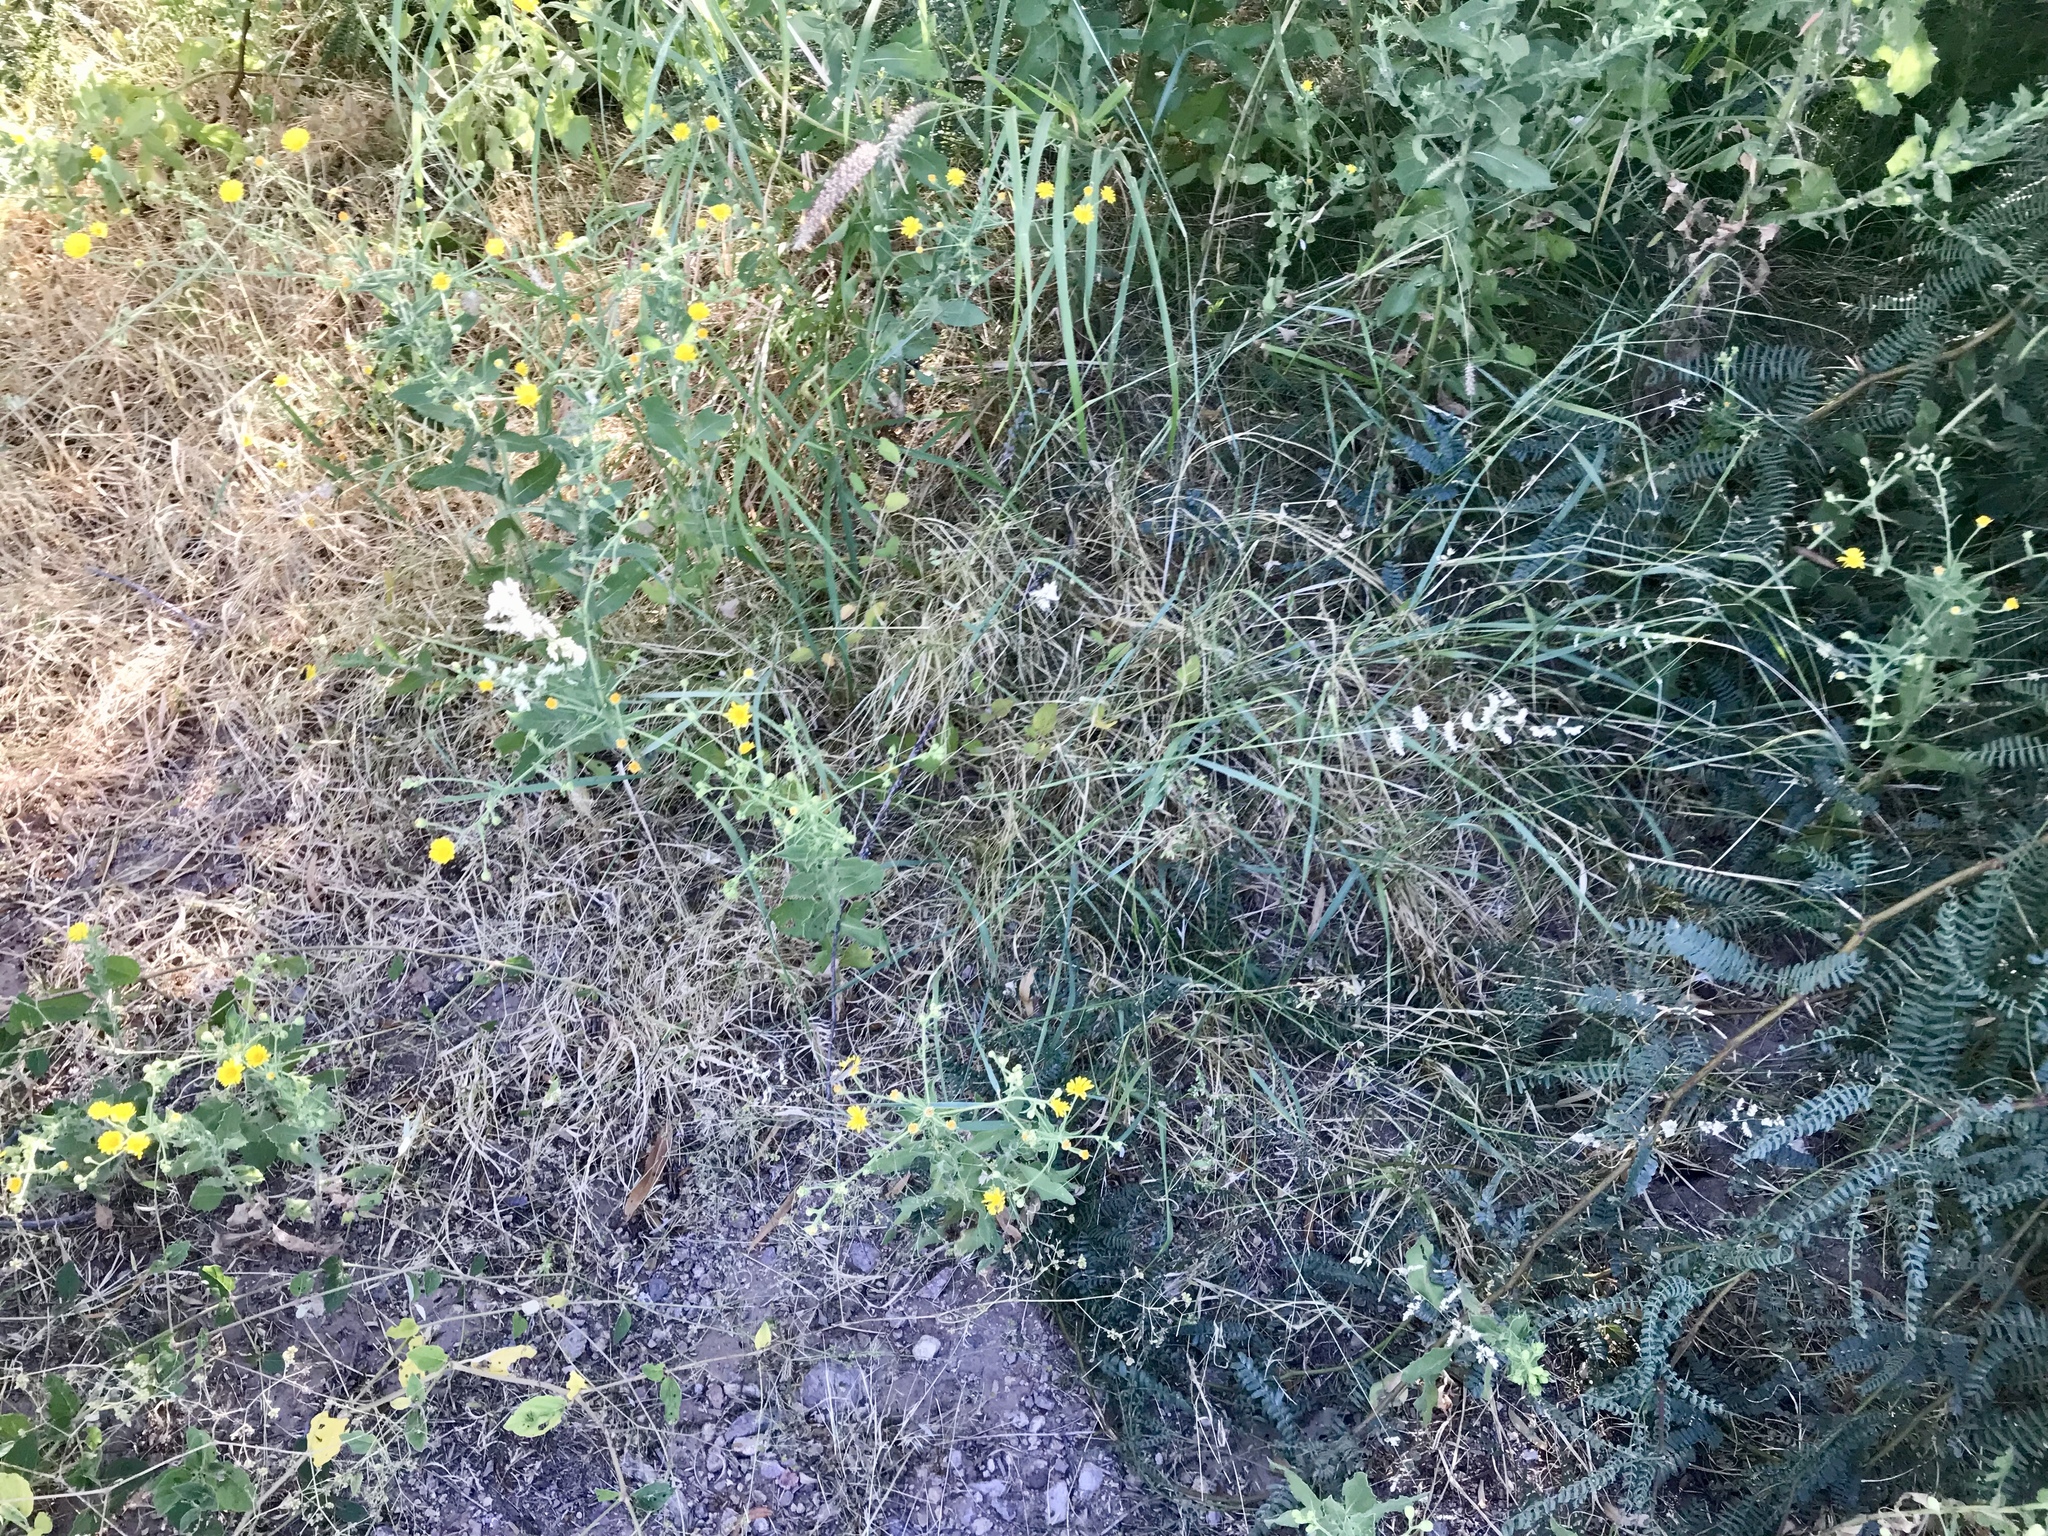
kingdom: Plantae
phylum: Tracheophyta
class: Liliopsida
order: Poales
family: Poaceae
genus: Eragrostis
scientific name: Eragrostis echinochloidea
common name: African lovegrass
